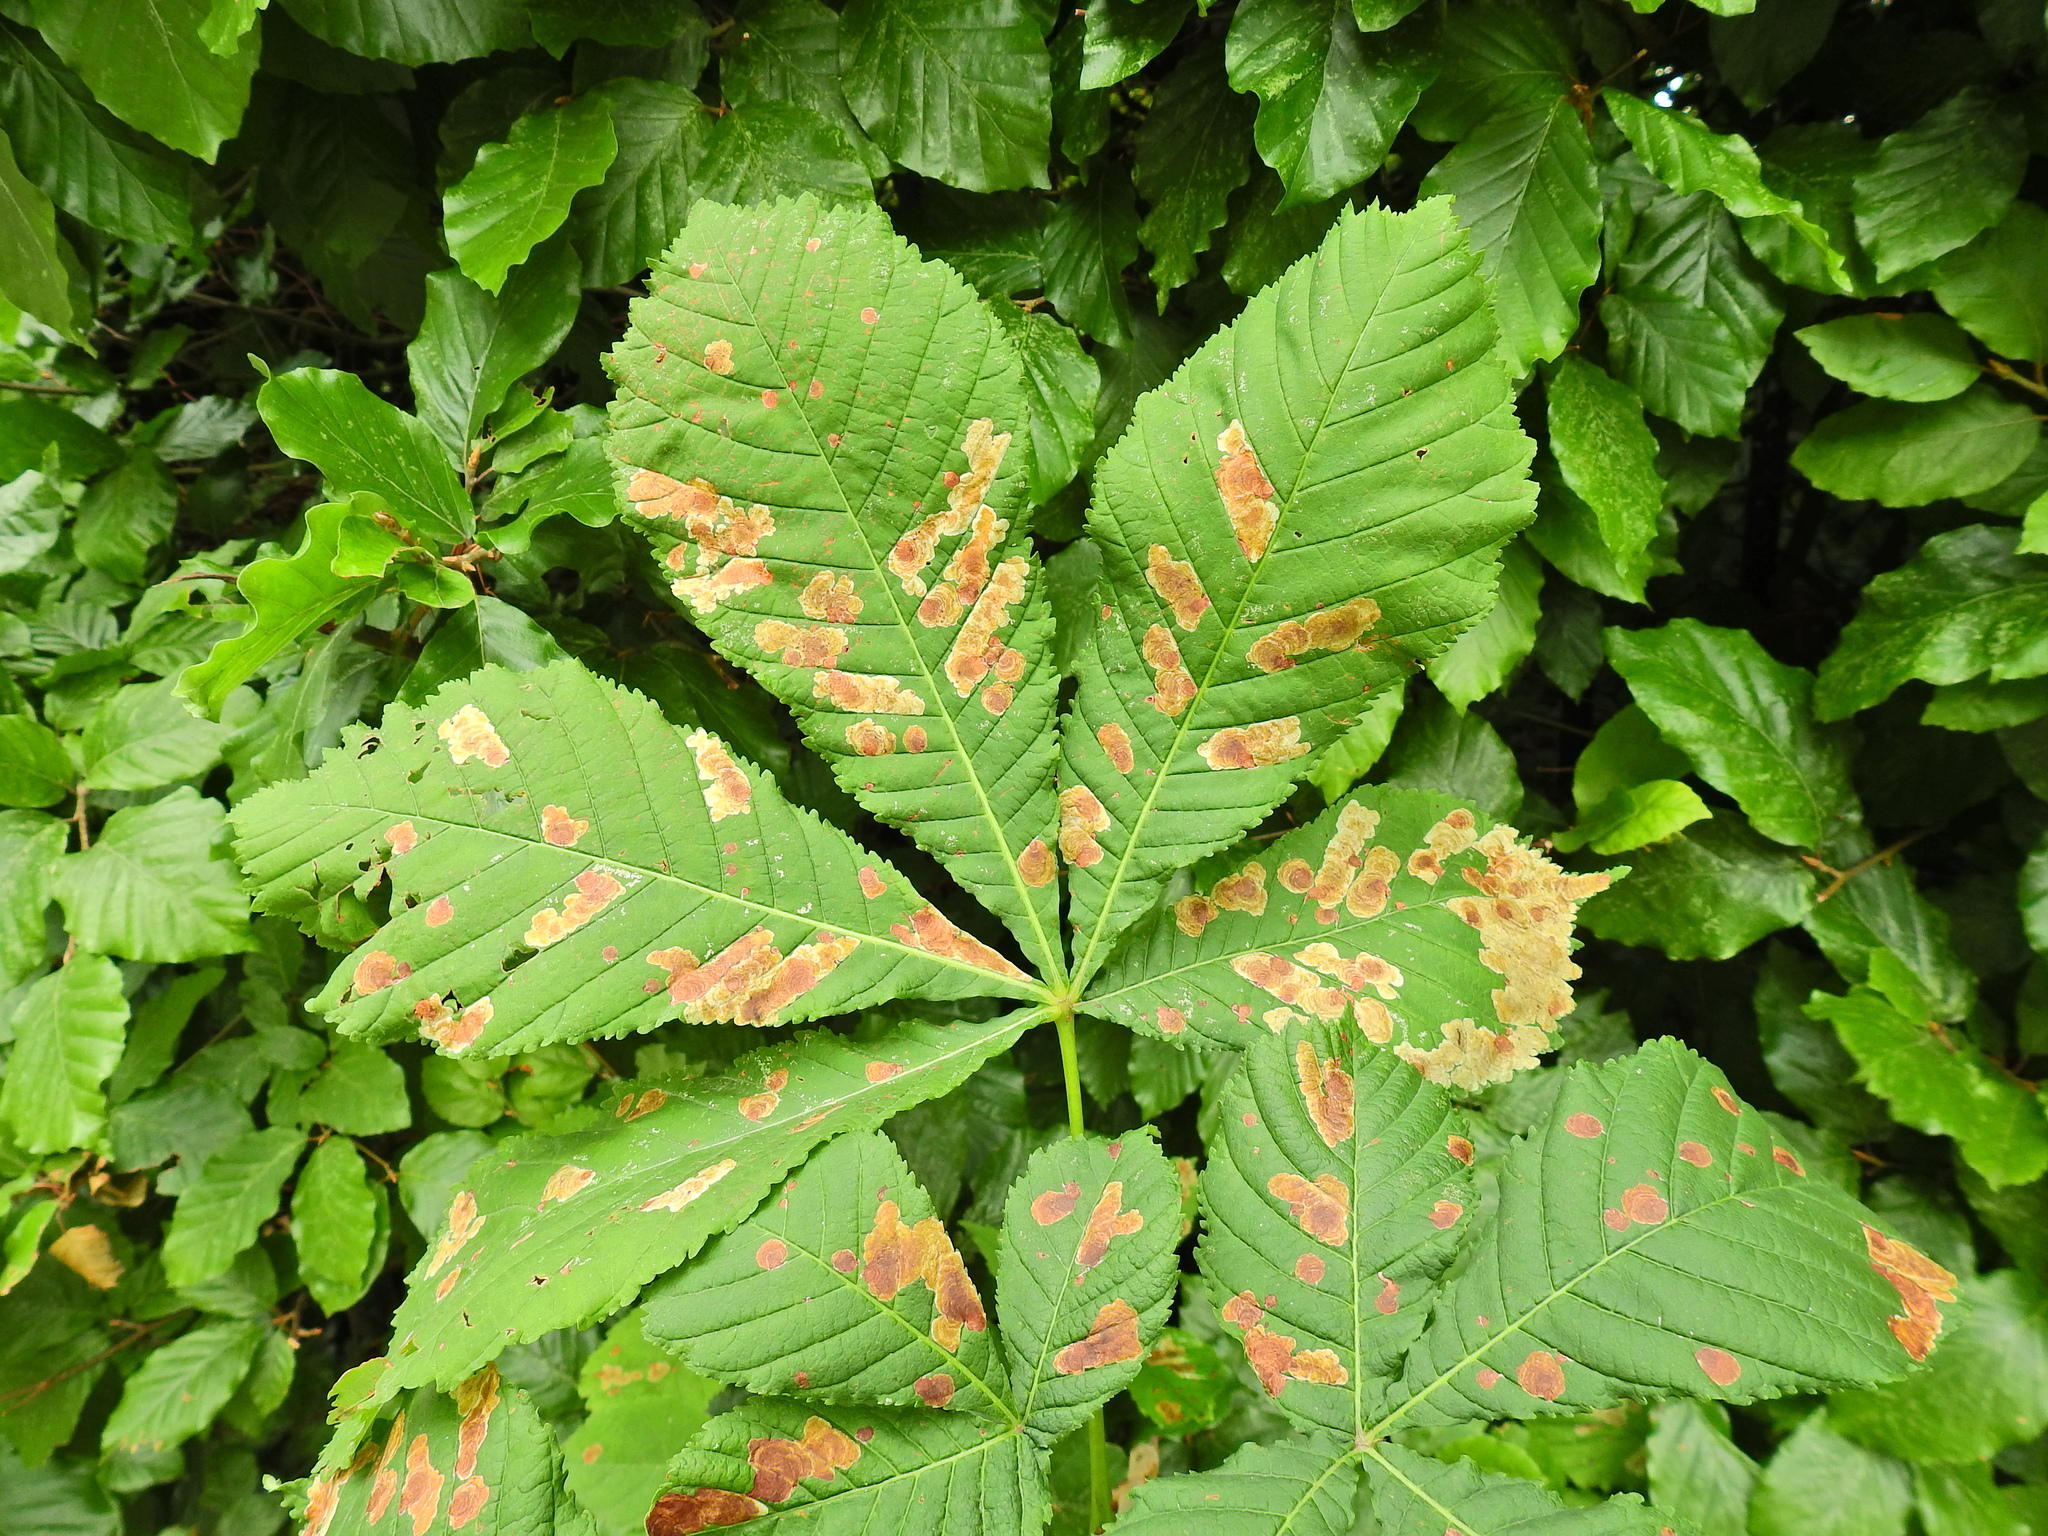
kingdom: Animalia
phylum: Arthropoda
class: Insecta
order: Lepidoptera
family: Gracillariidae
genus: Cameraria
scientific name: Cameraria ohridella
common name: Horse-chestnut leaf-miner
